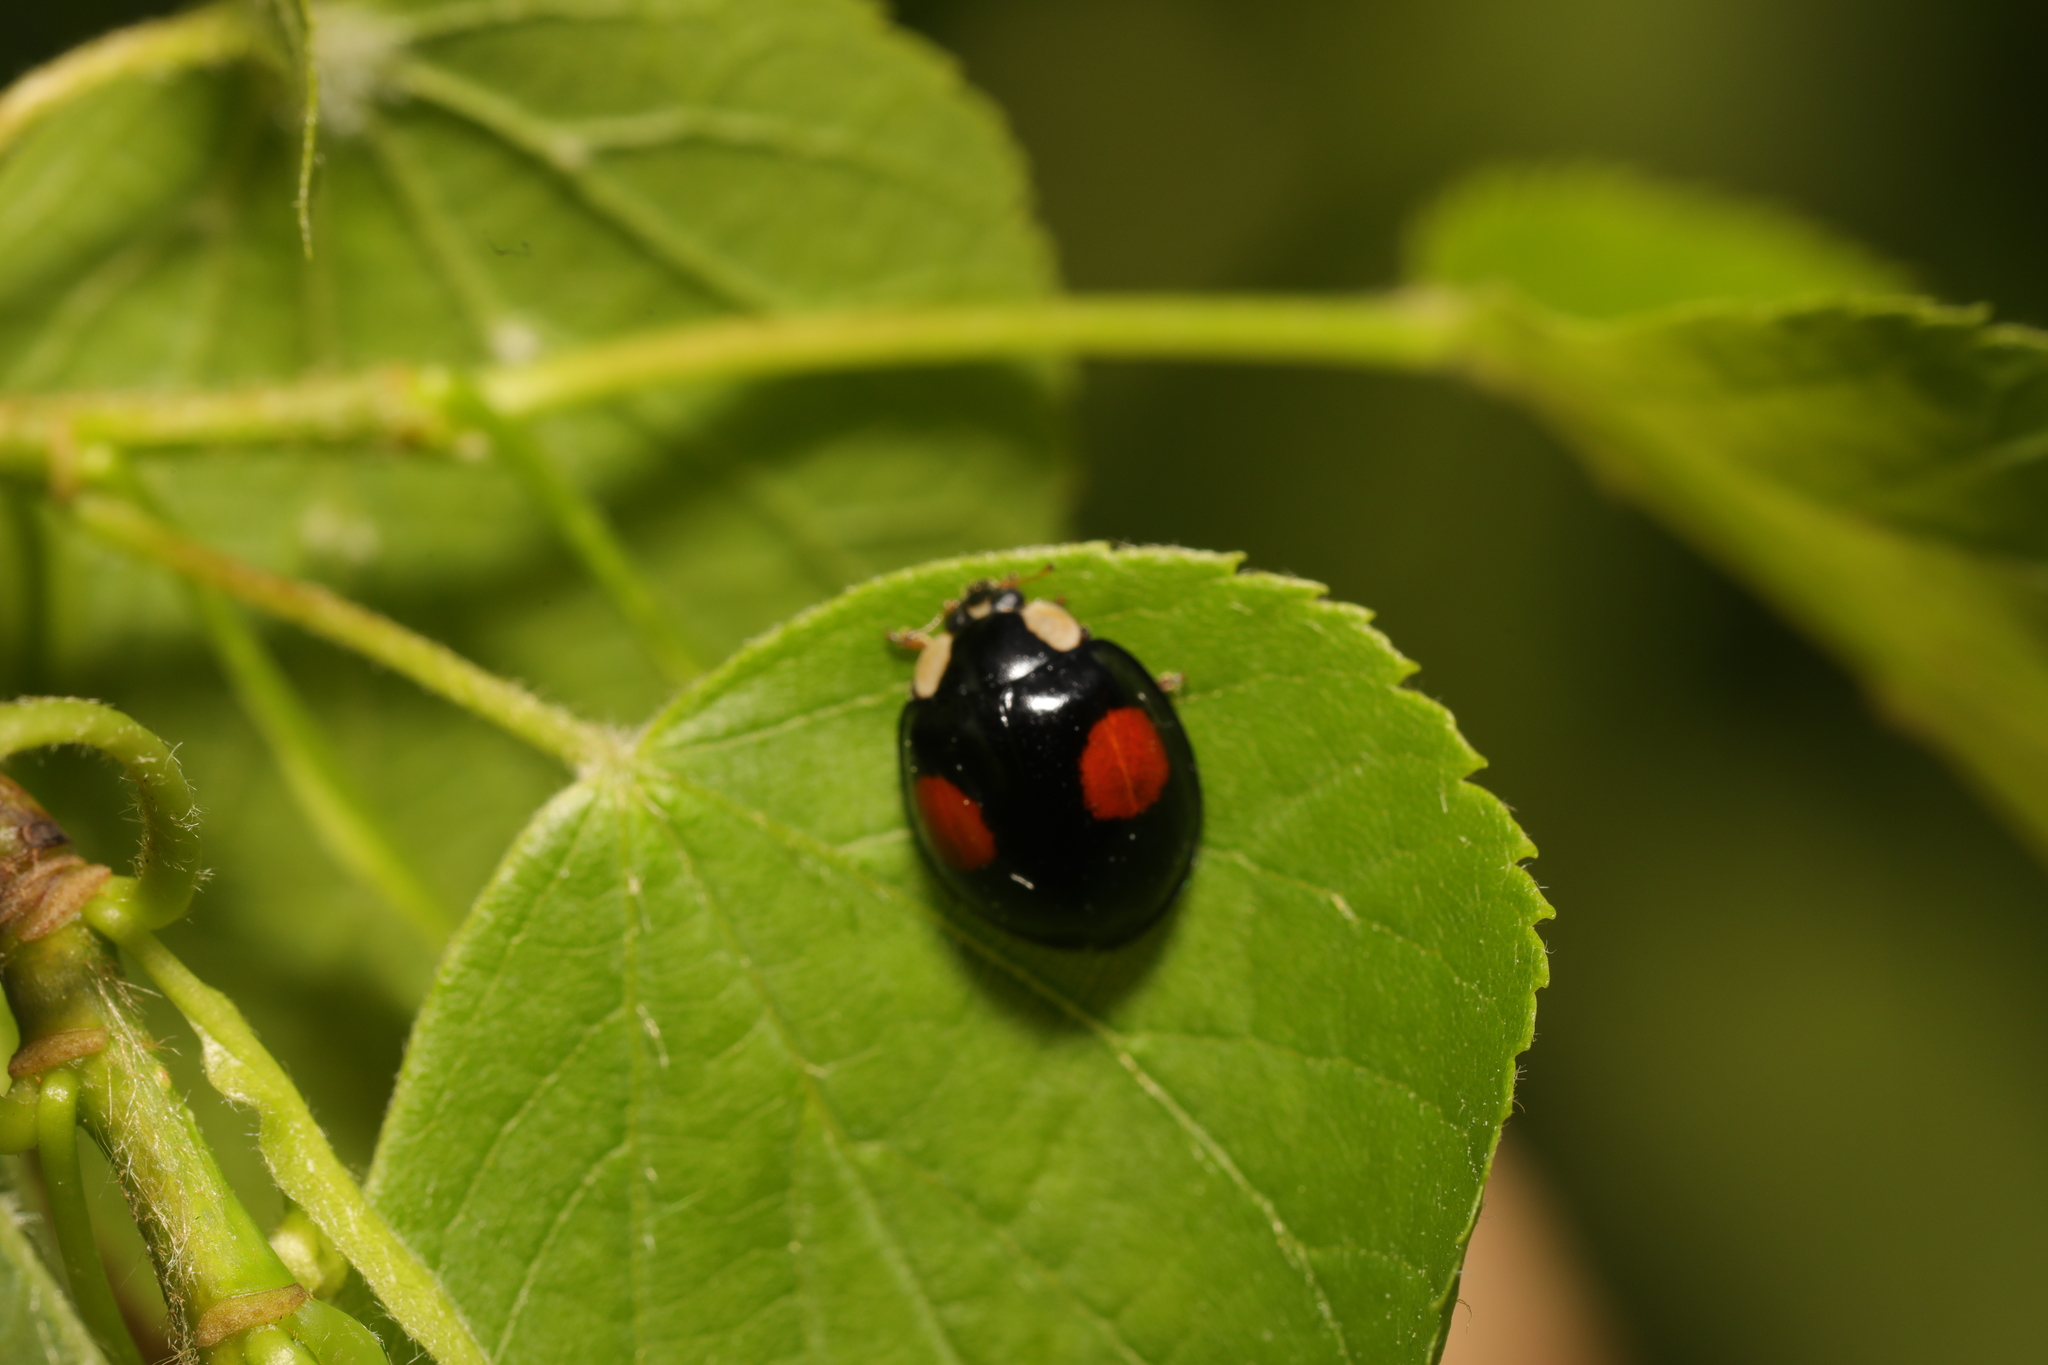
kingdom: Animalia
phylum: Arthropoda
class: Insecta
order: Coleoptera
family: Coccinellidae
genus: Harmonia
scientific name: Harmonia axyridis
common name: Harlequin ladybird
